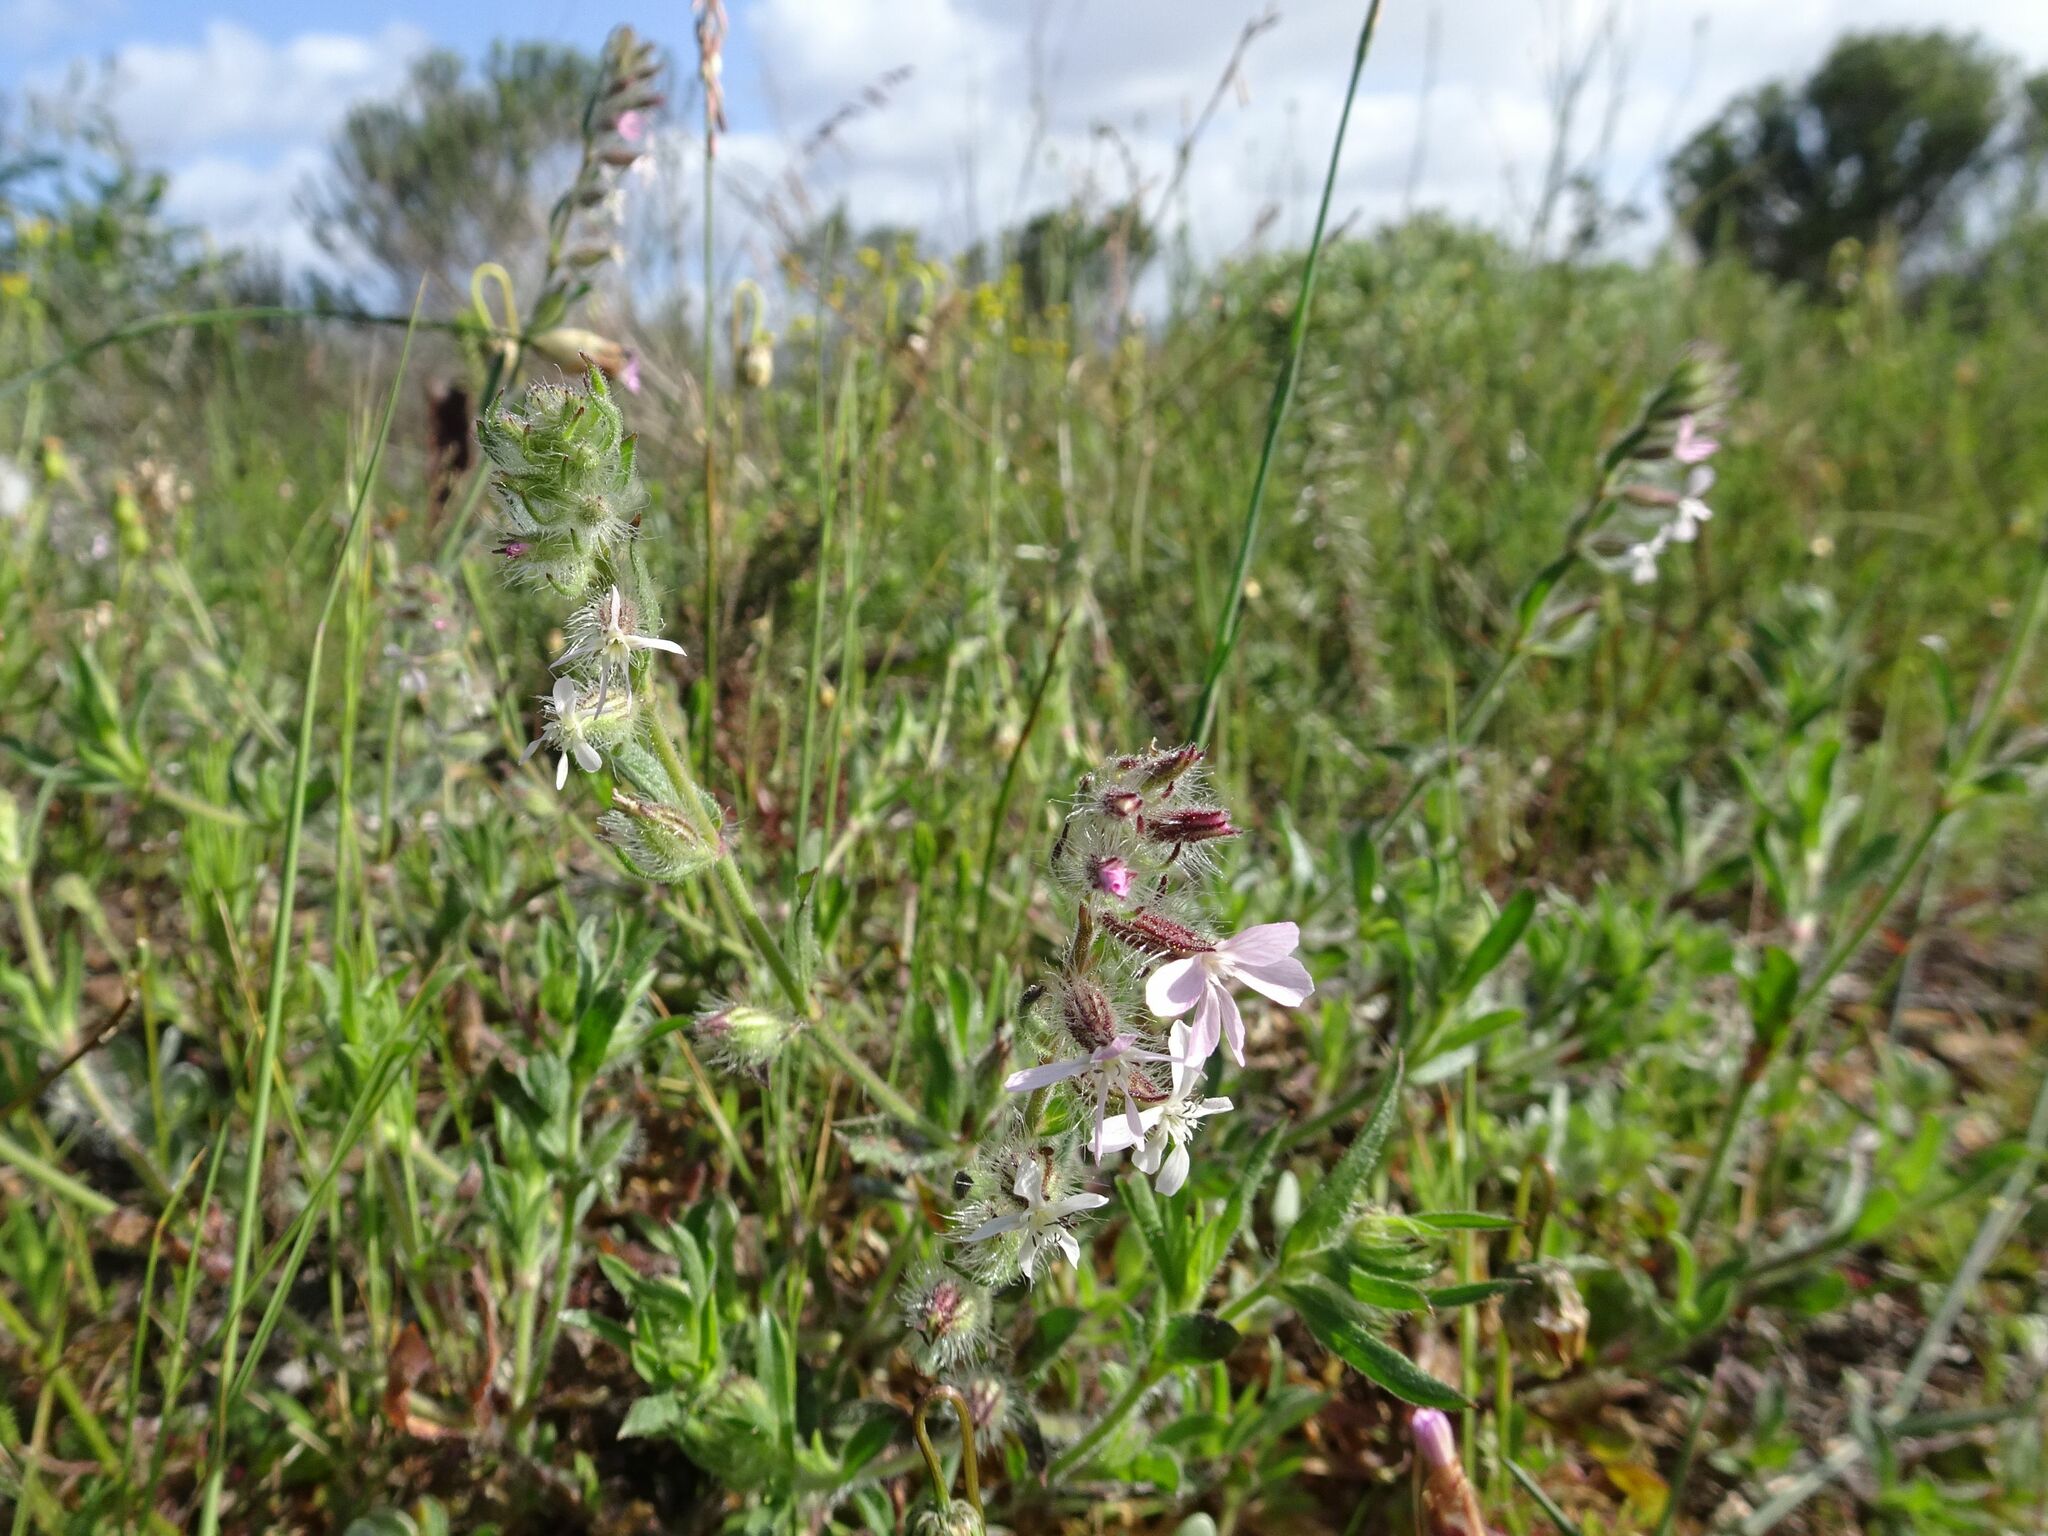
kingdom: Plantae
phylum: Tracheophyta
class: Magnoliopsida
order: Caryophyllales
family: Caryophyllaceae
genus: Silene
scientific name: Silene gallica
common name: Small-flowered catchfly
